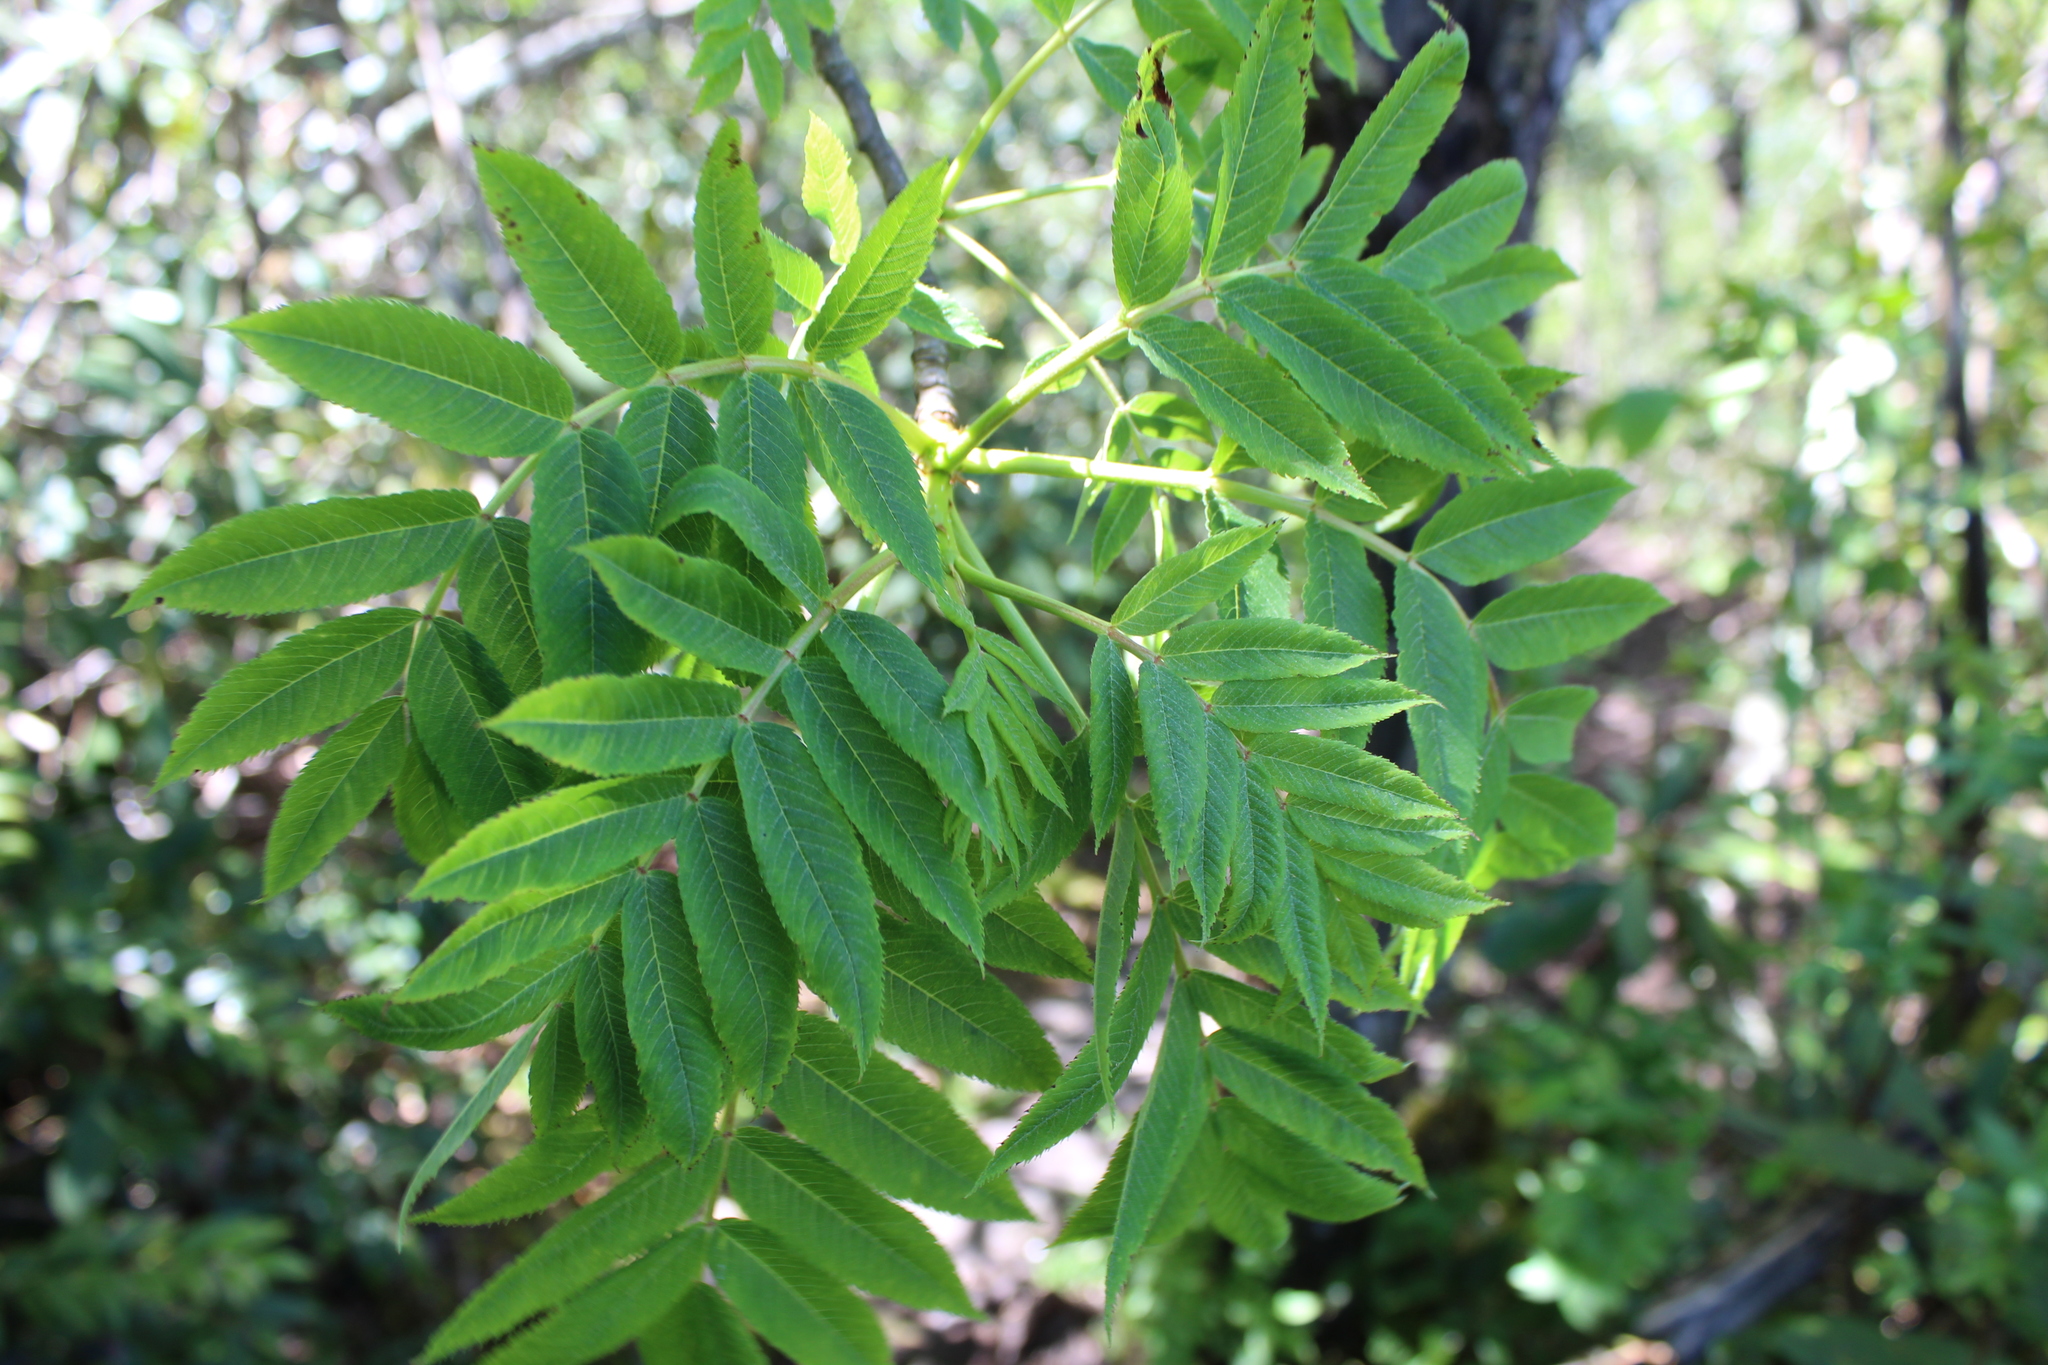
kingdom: Plantae
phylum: Tracheophyta
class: Magnoliopsida
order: Rosales
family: Rosaceae
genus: Sorbus
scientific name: Sorbus americana
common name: American mountain-ash
